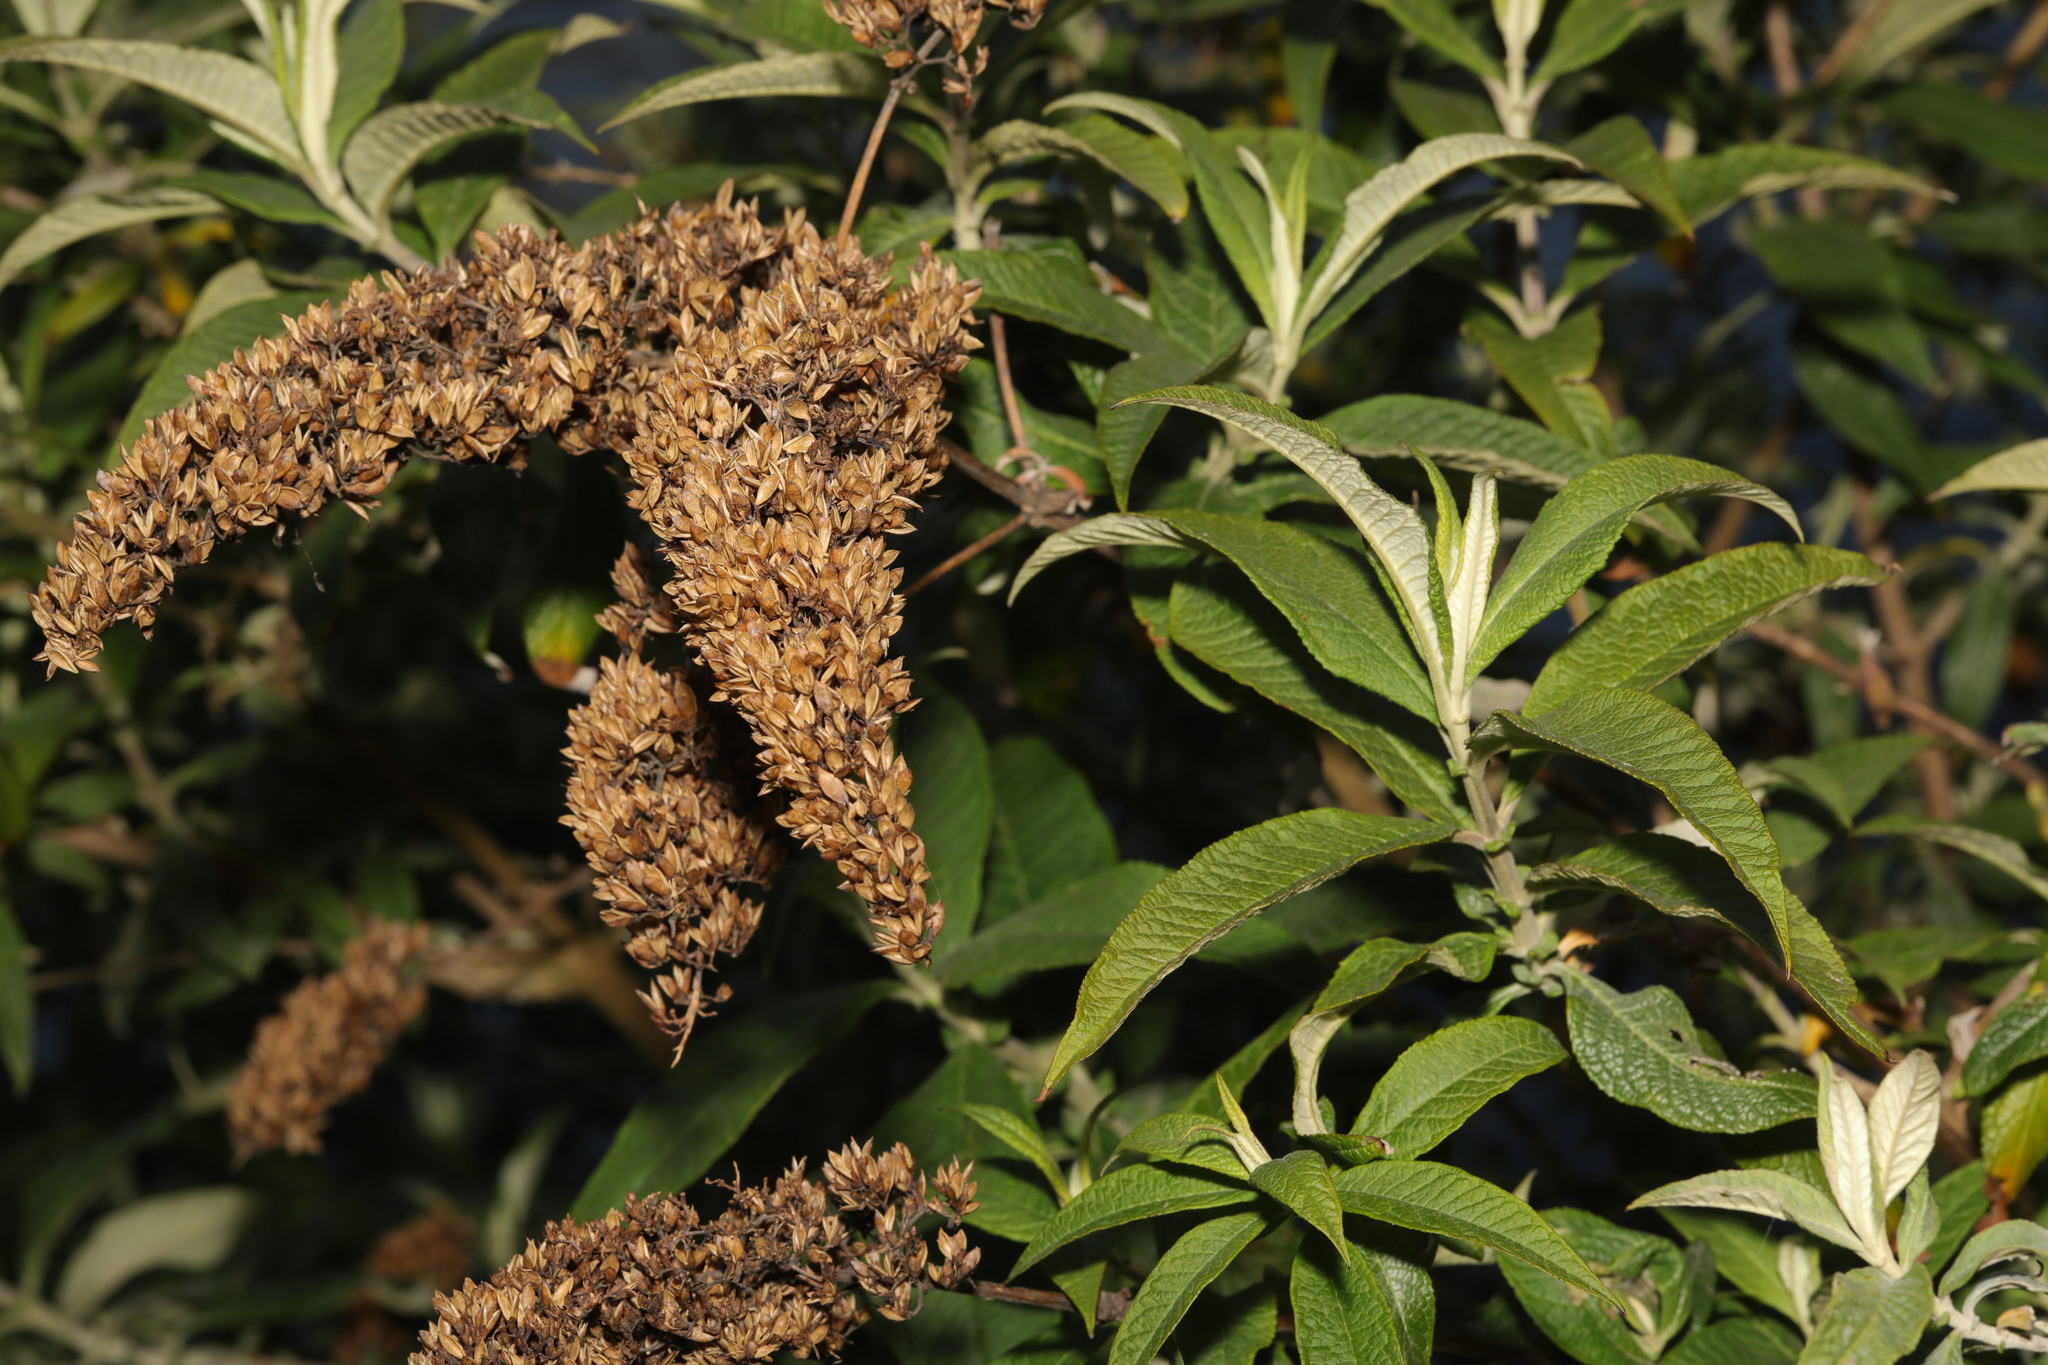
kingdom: Plantae
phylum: Tracheophyta
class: Magnoliopsida
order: Lamiales
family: Scrophulariaceae
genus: Buddleja
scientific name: Buddleja davidii
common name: Butterfly-bush
